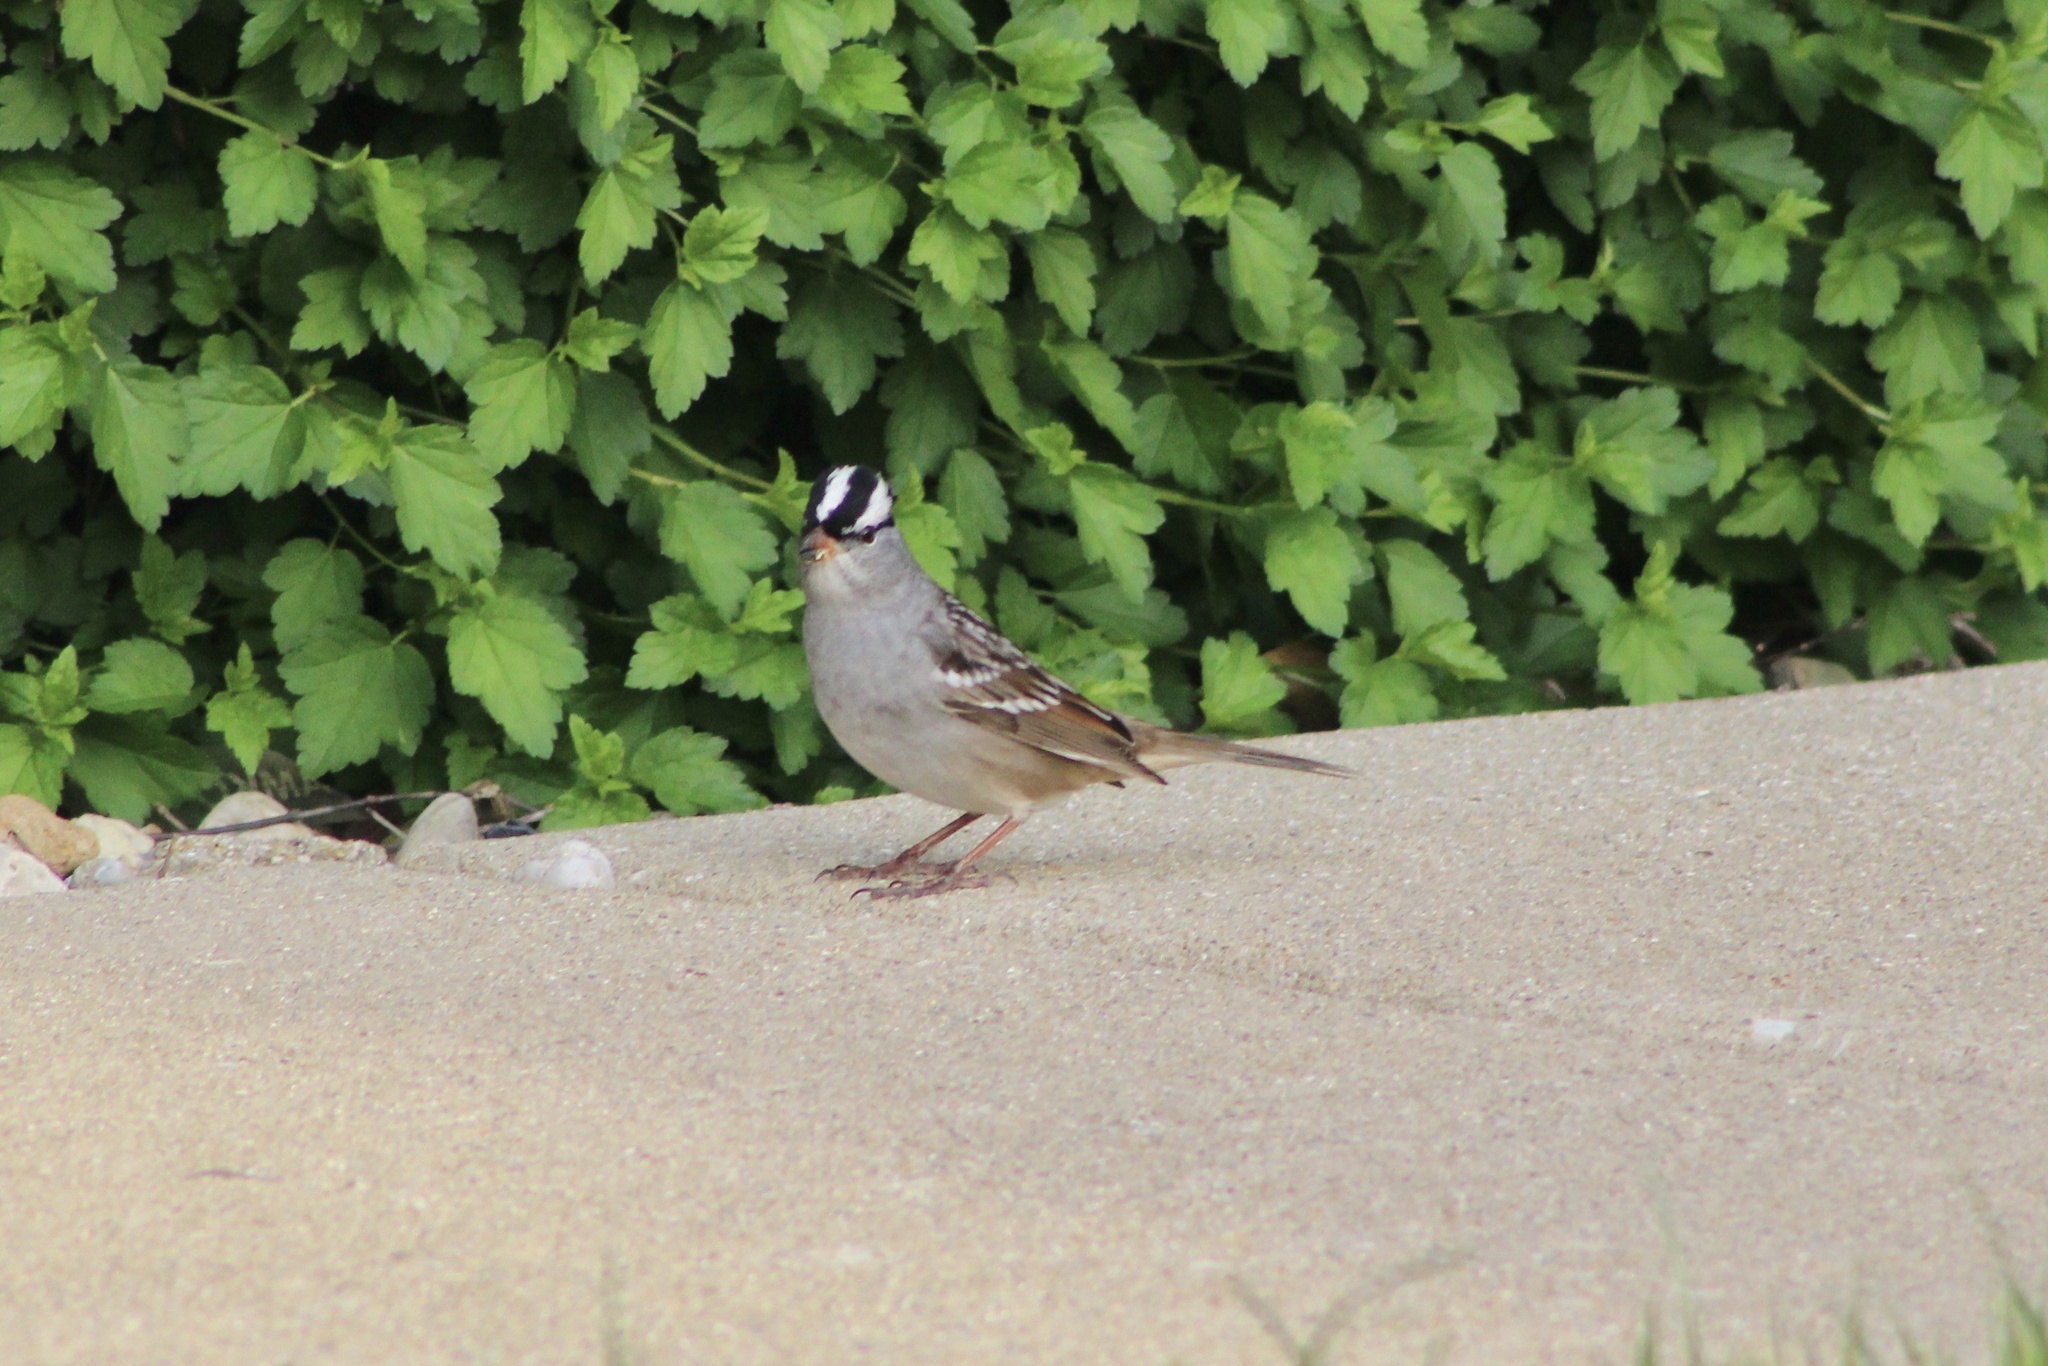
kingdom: Animalia
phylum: Chordata
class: Aves
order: Passeriformes
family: Passerellidae
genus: Zonotrichia
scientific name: Zonotrichia leucophrys
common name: White-crowned sparrow
